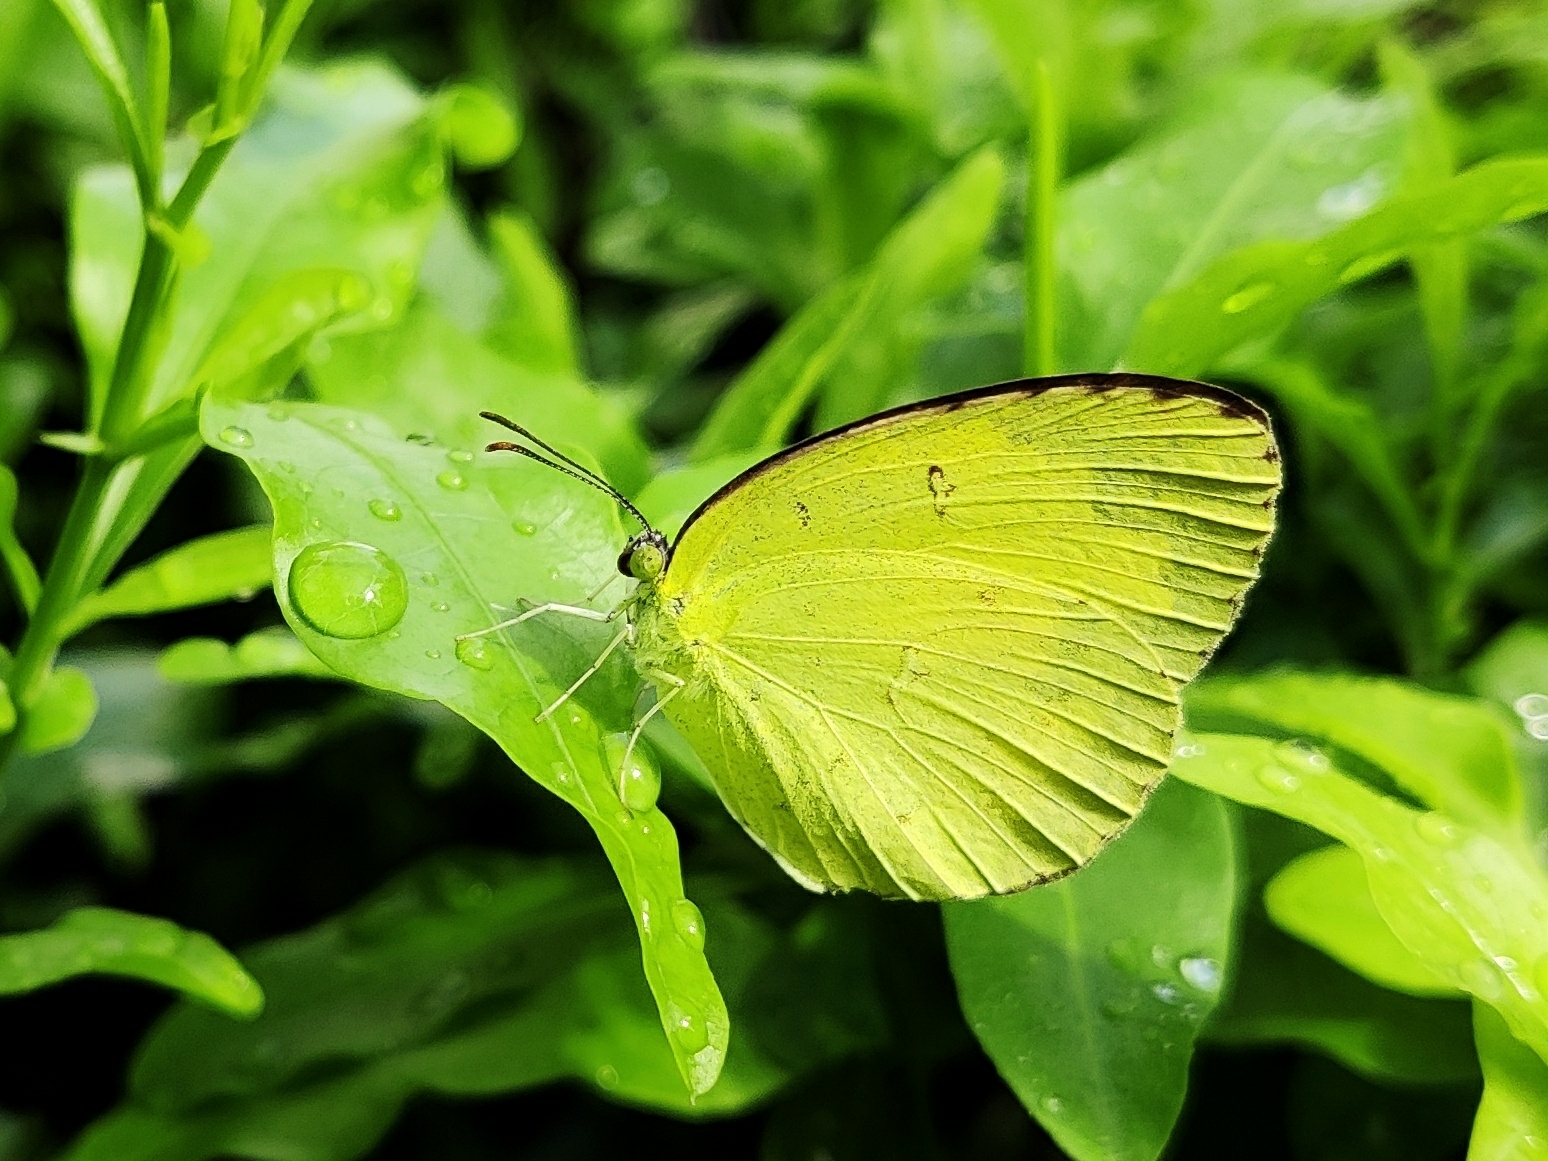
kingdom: Animalia
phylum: Arthropoda
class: Insecta
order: Lepidoptera
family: Pieridae
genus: Eurema
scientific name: Eurema hecabe
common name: Pale grass yellow
